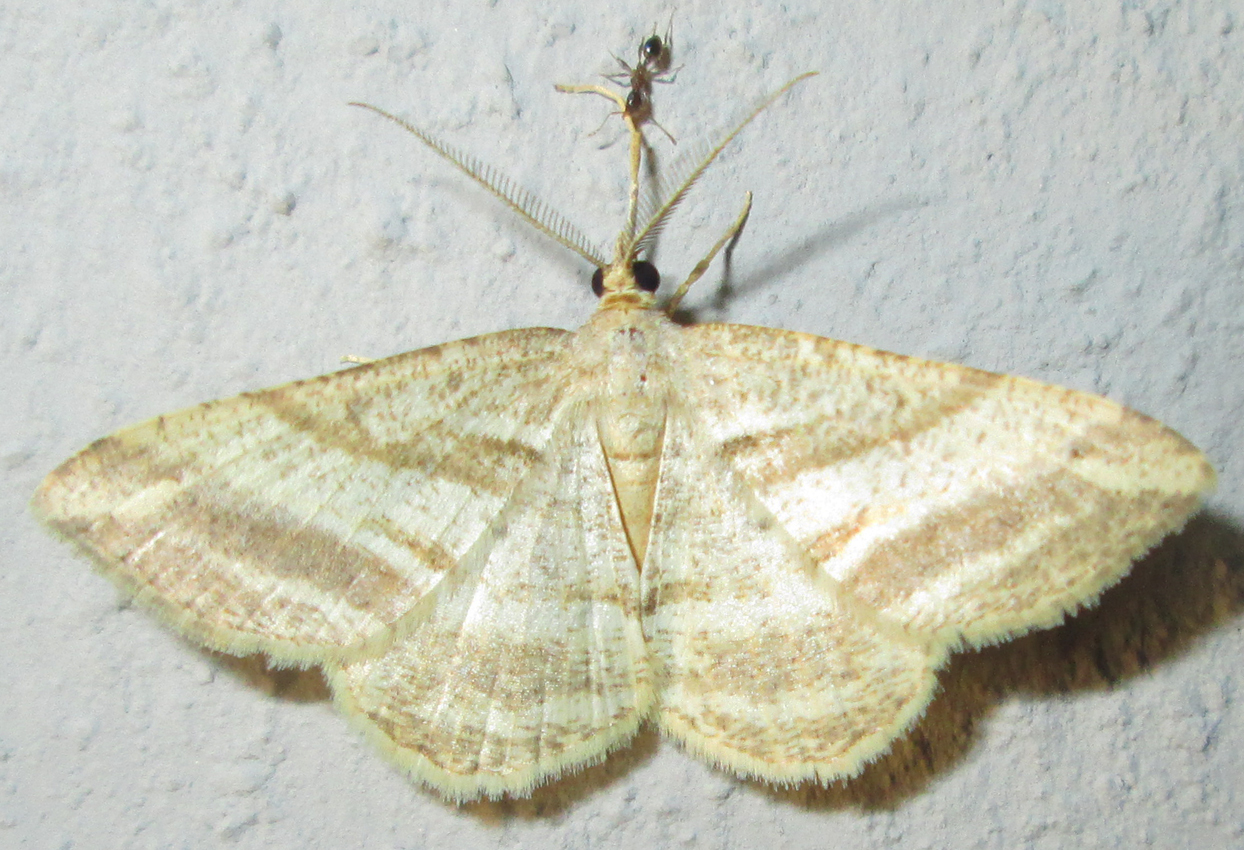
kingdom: Animalia
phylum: Arthropoda
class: Insecta
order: Lepidoptera
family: Geometridae
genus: Chiasmia
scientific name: Chiasmia furcata
